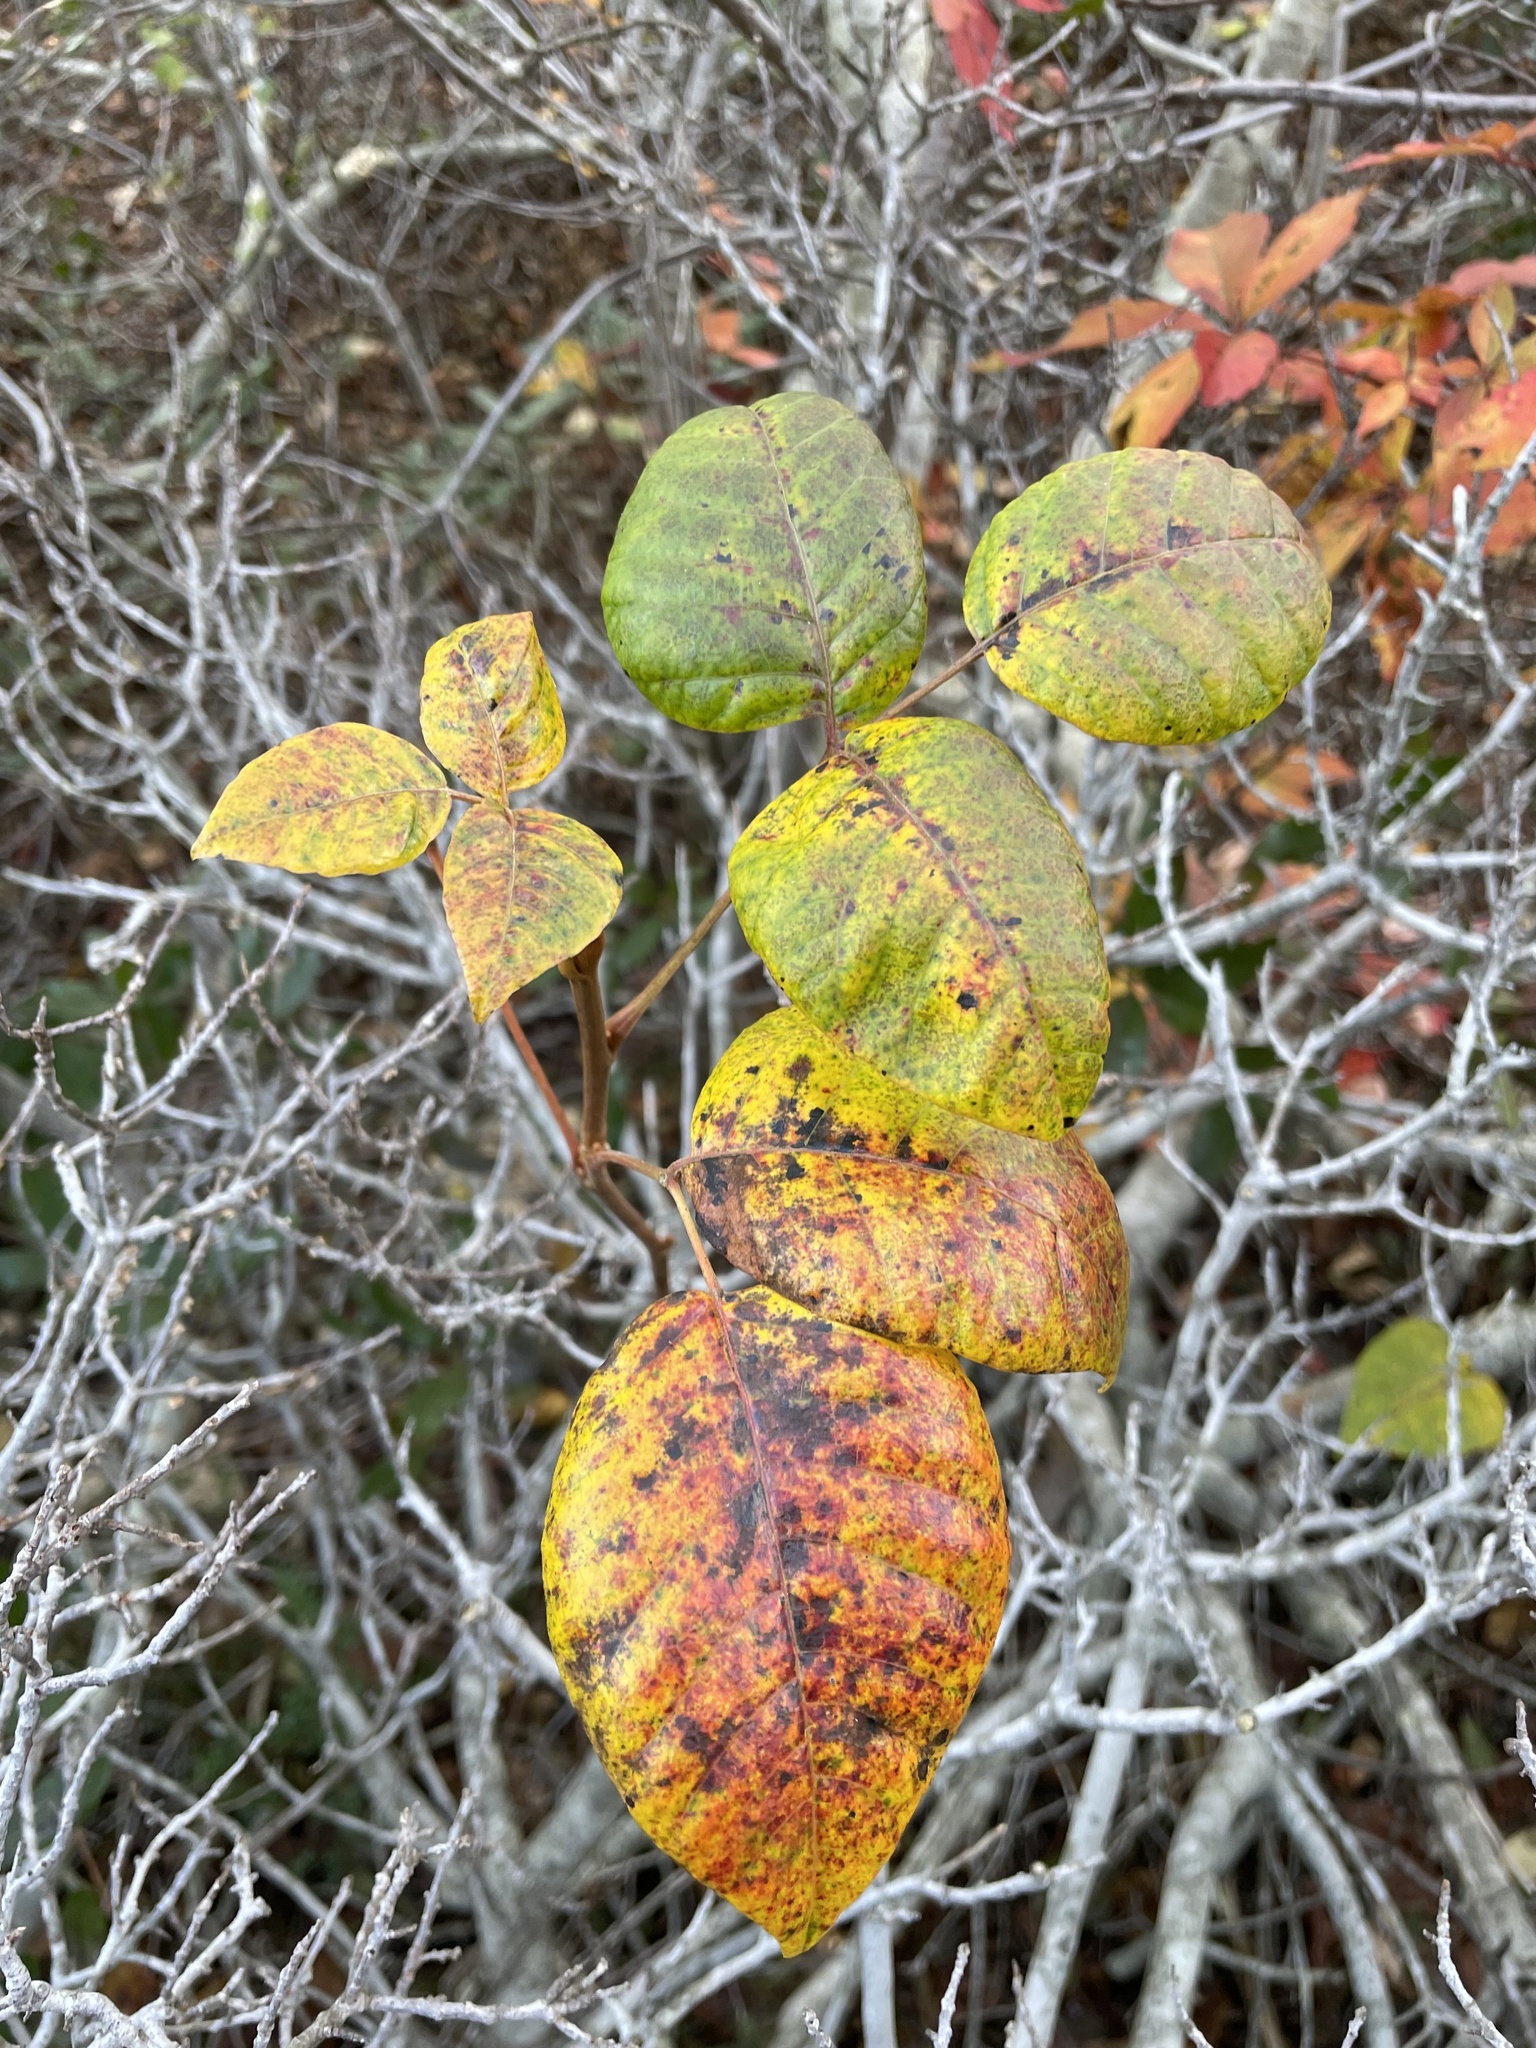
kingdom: Plantae
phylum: Tracheophyta
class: Magnoliopsida
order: Sapindales
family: Anacardiaceae
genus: Toxicodendron
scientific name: Toxicodendron radicans
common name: Poison ivy
